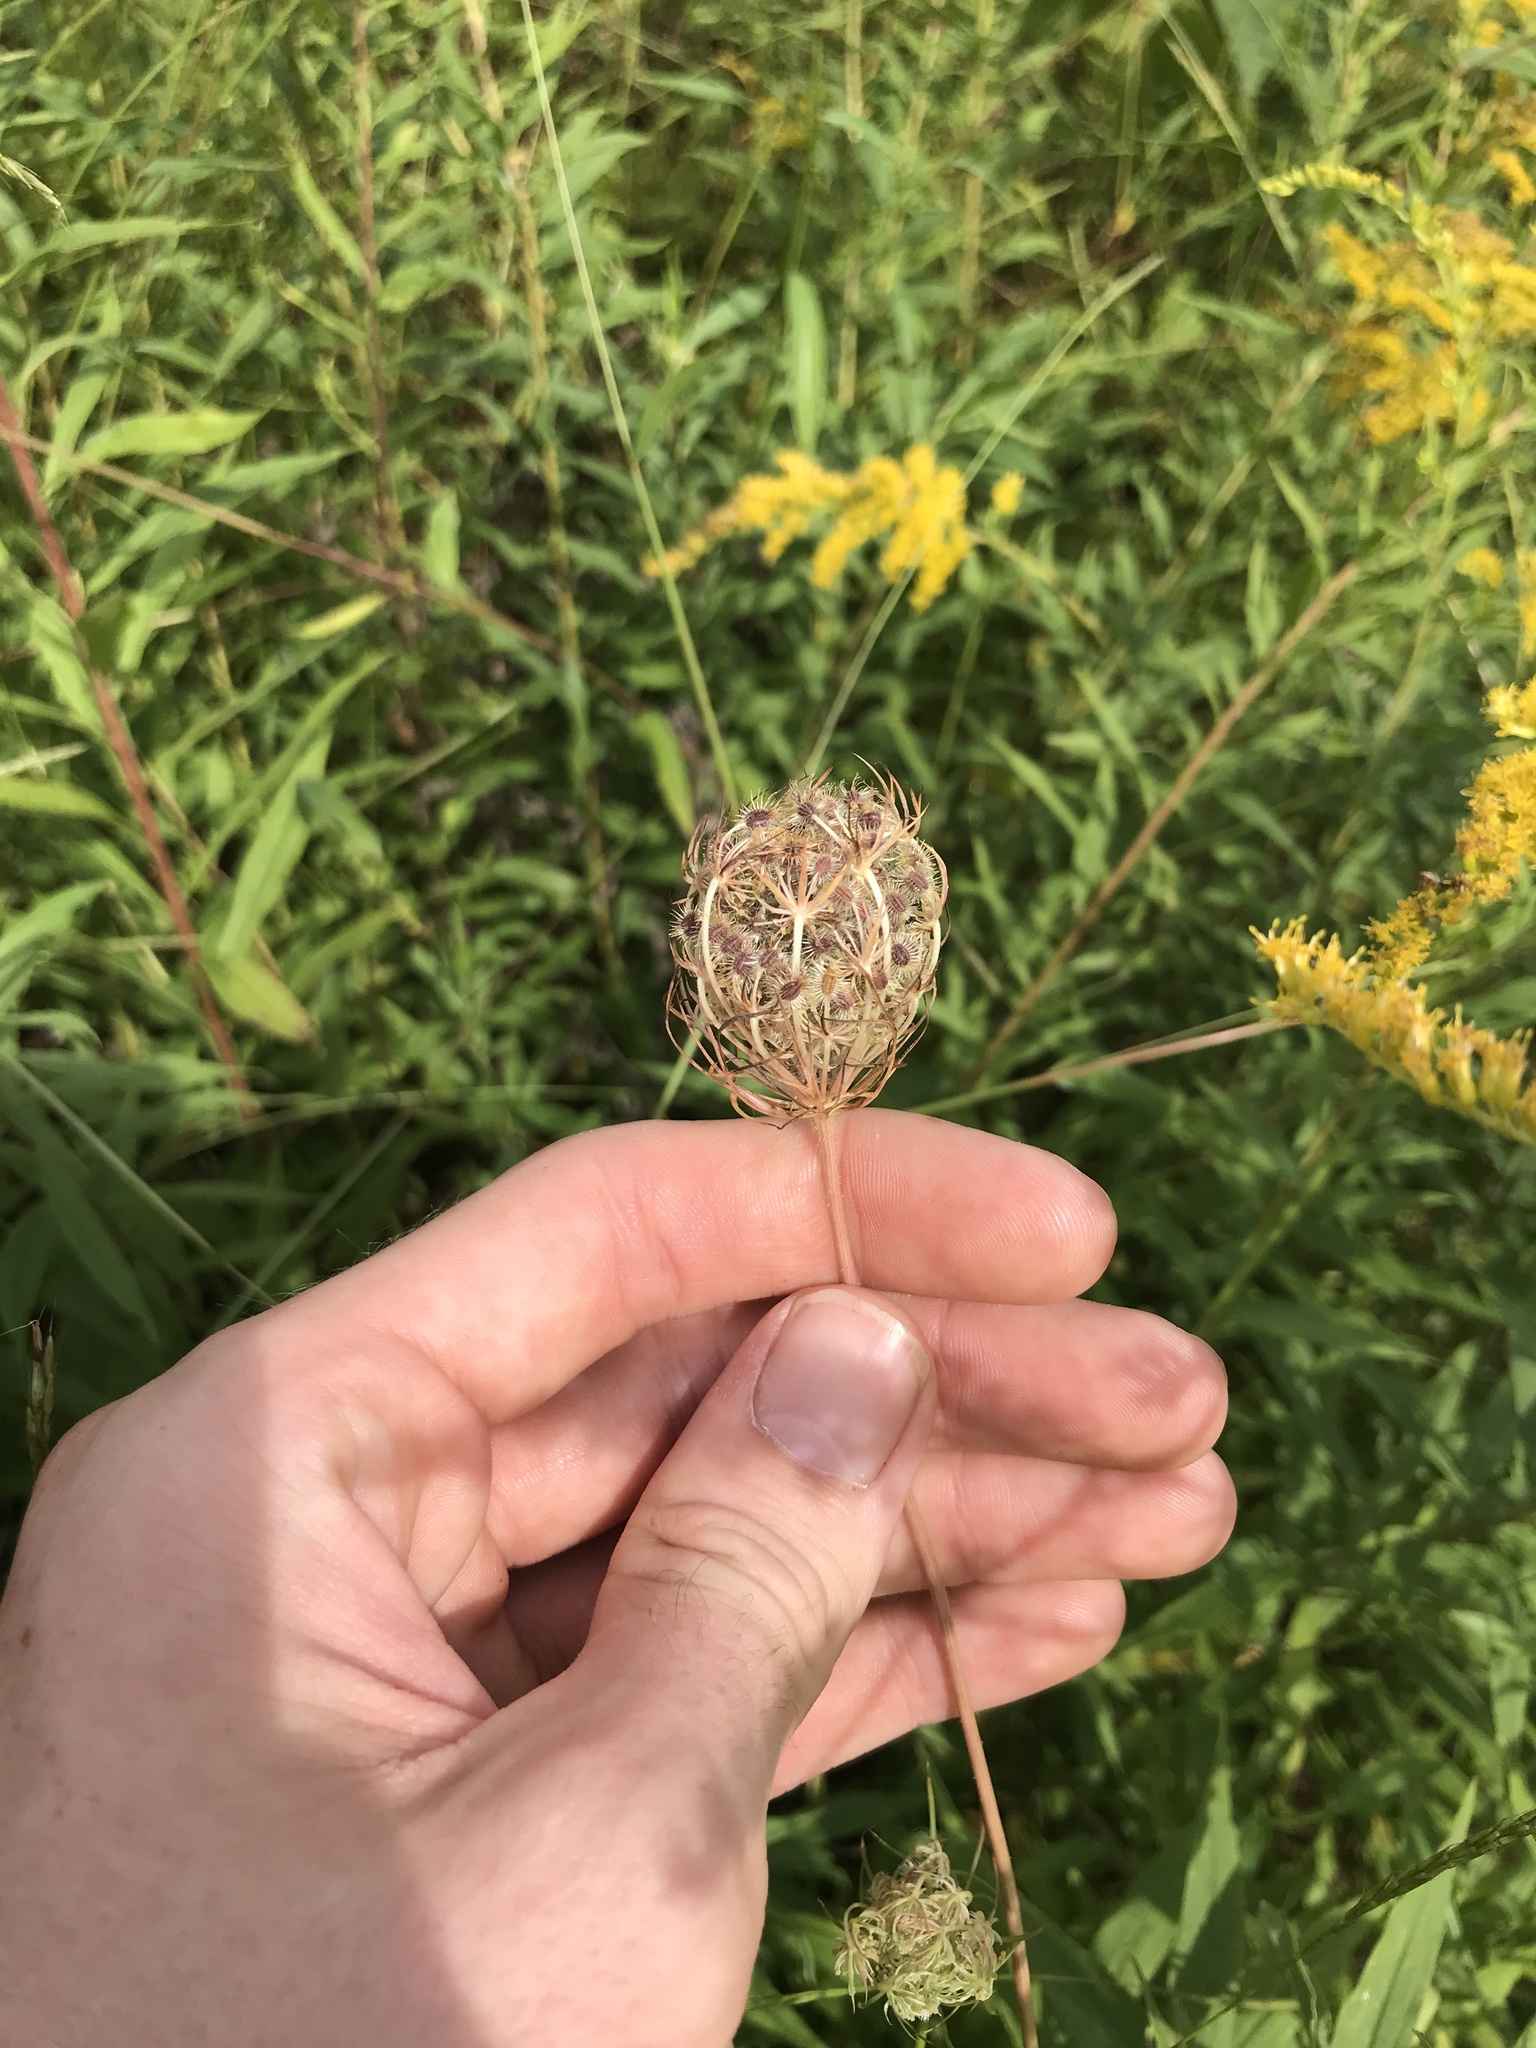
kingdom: Plantae
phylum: Tracheophyta
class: Magnoliopsida
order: Apiales
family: Apiaceae
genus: Daucus
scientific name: Daucus carota
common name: Wild carrot
